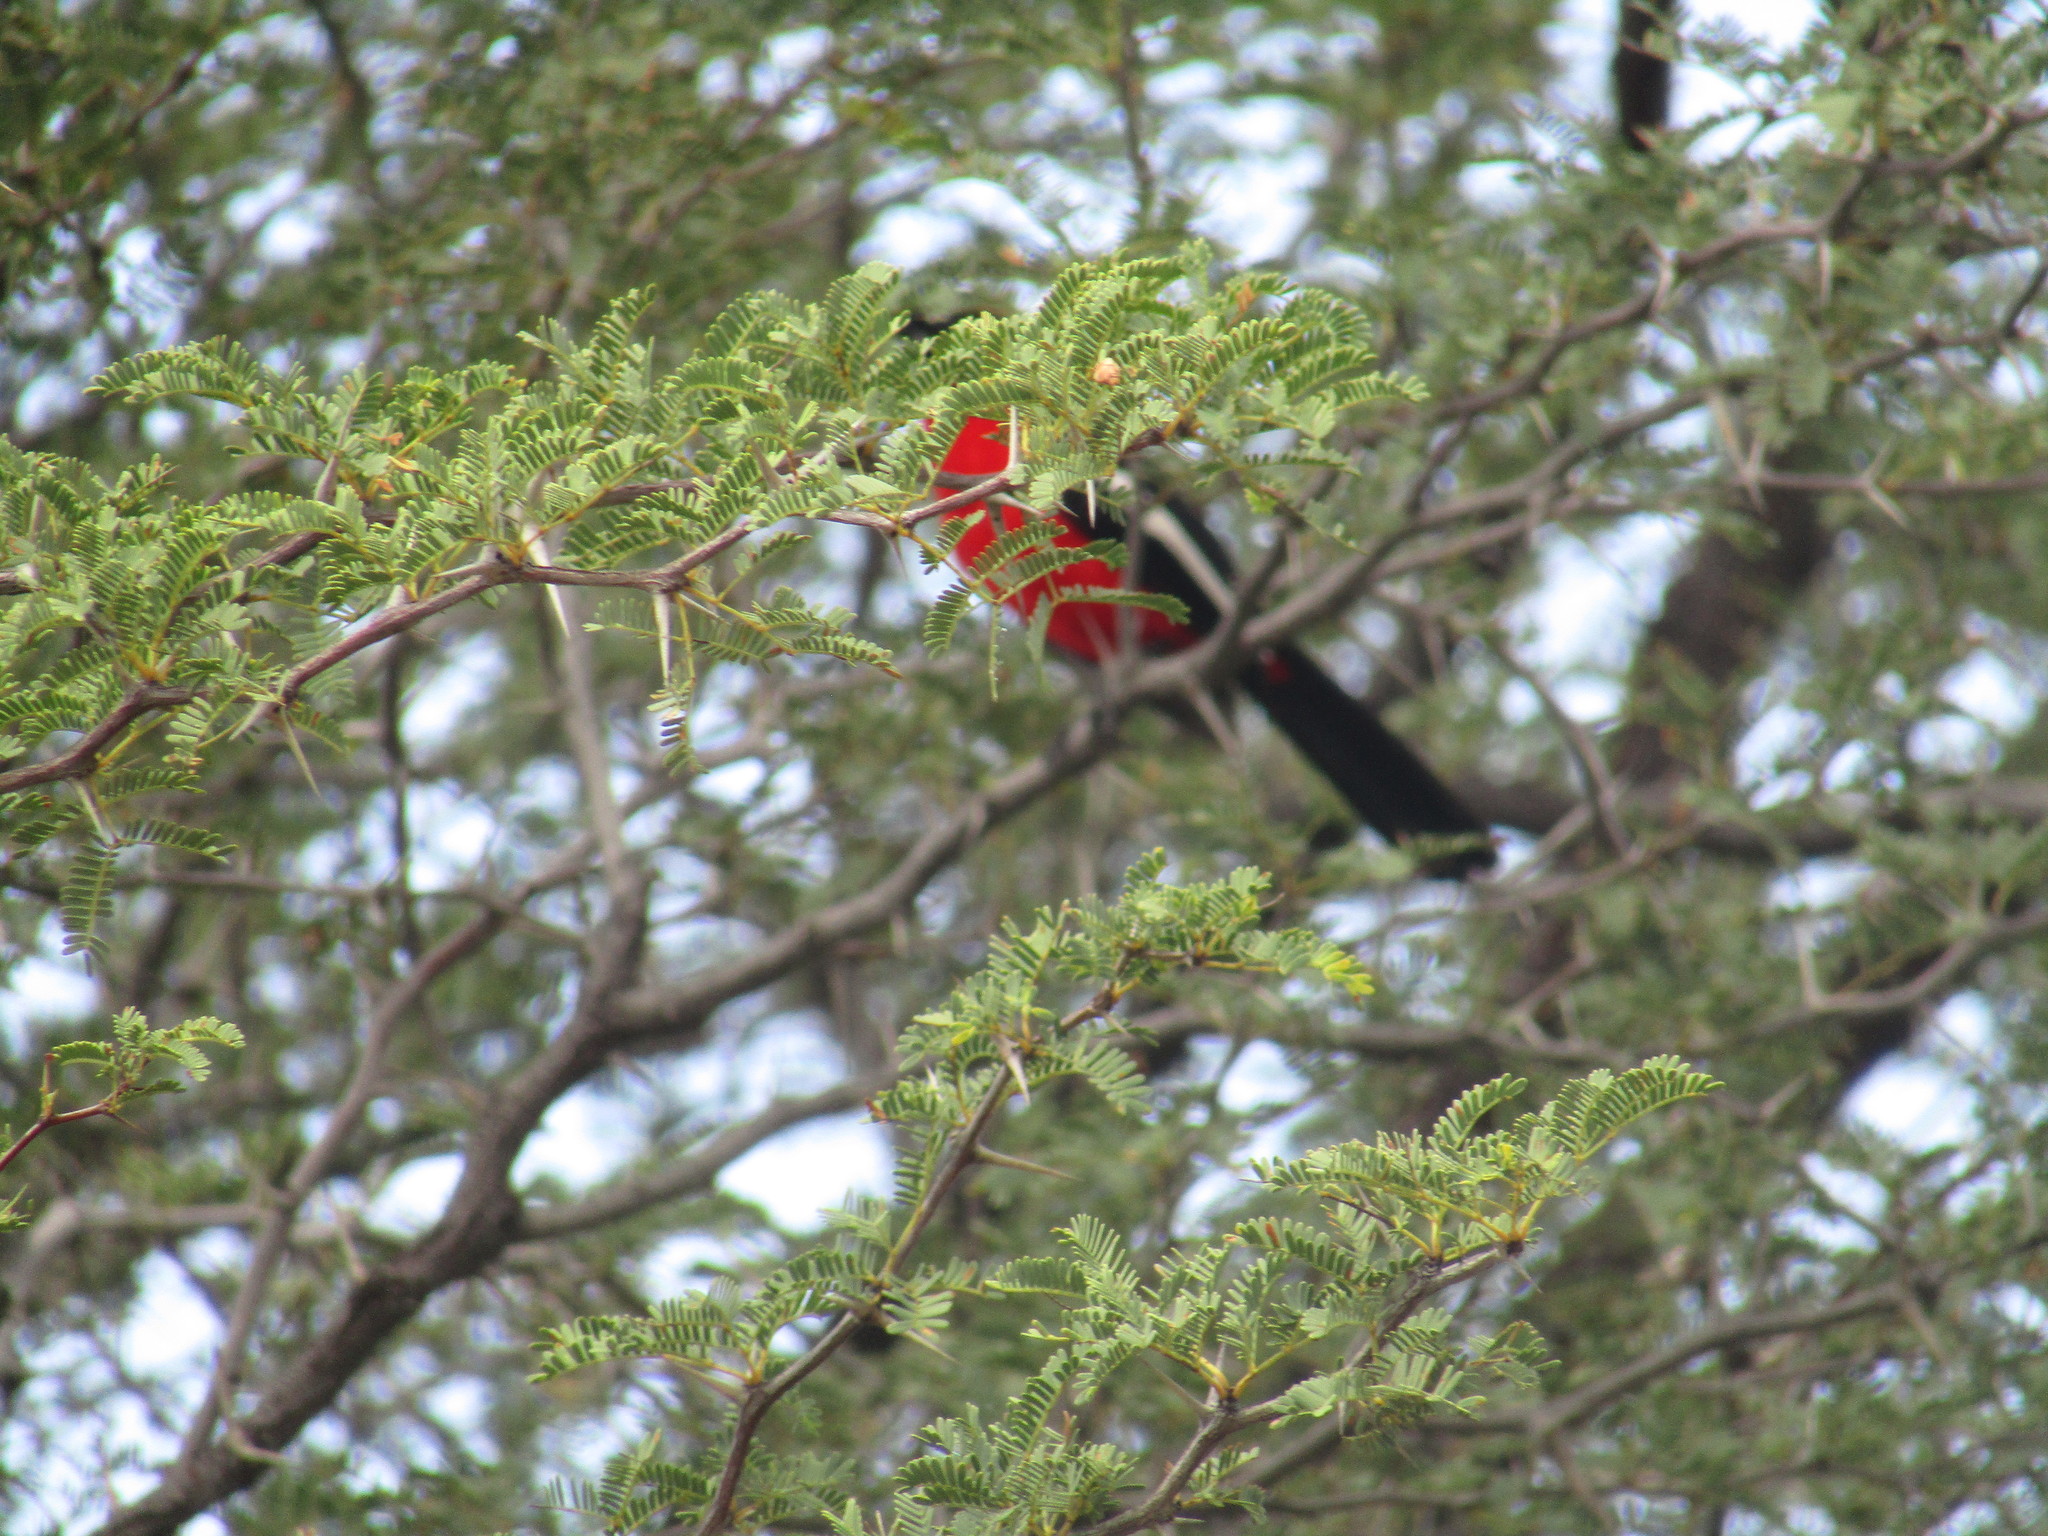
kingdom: Animalia
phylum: Chordata
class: Aves
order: Passeriformes
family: Malaconotidae
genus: Laniarius
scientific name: Laniarius atrococcineus
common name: Crimson-breasted shrike
